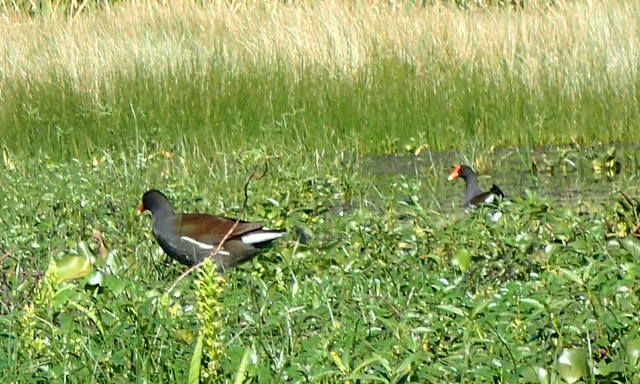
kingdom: Animalia
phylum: Chordata
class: Aves
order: Gruiformes
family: Rallidae
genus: Gallinula
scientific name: Gallinula chloropus
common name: Common moorhen
